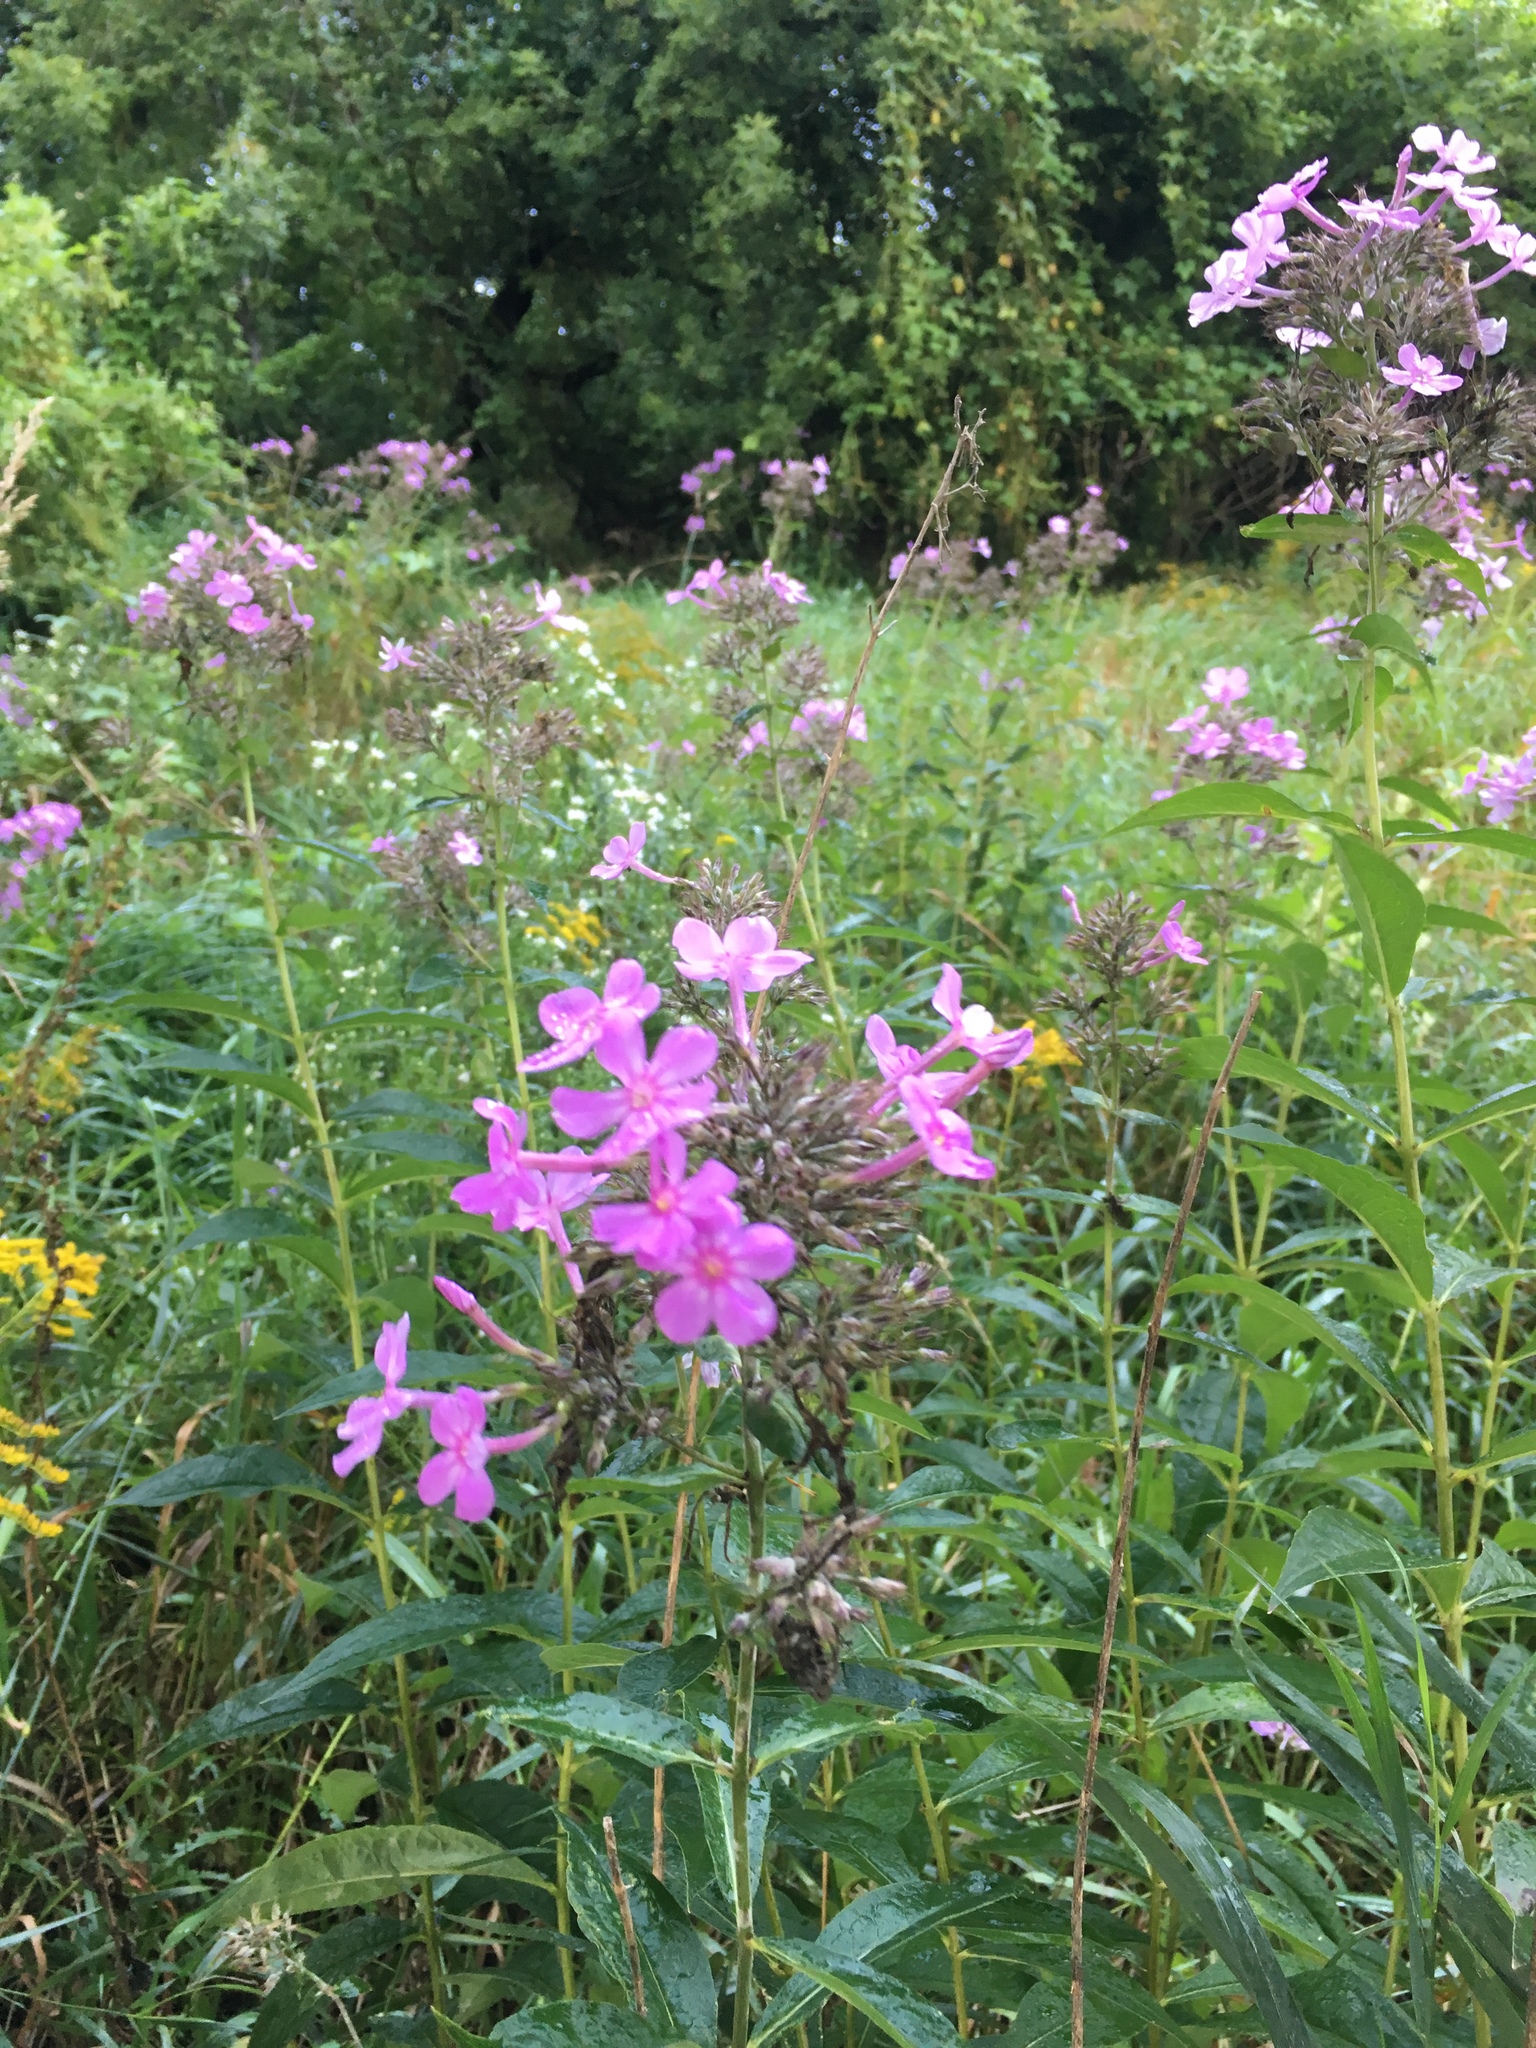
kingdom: Plantae
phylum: Tracheophyta
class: Magnoliopsida
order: Ericales
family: Polemoniaceae
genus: Phlox
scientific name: Phlox paniculata
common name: Fall phlox
